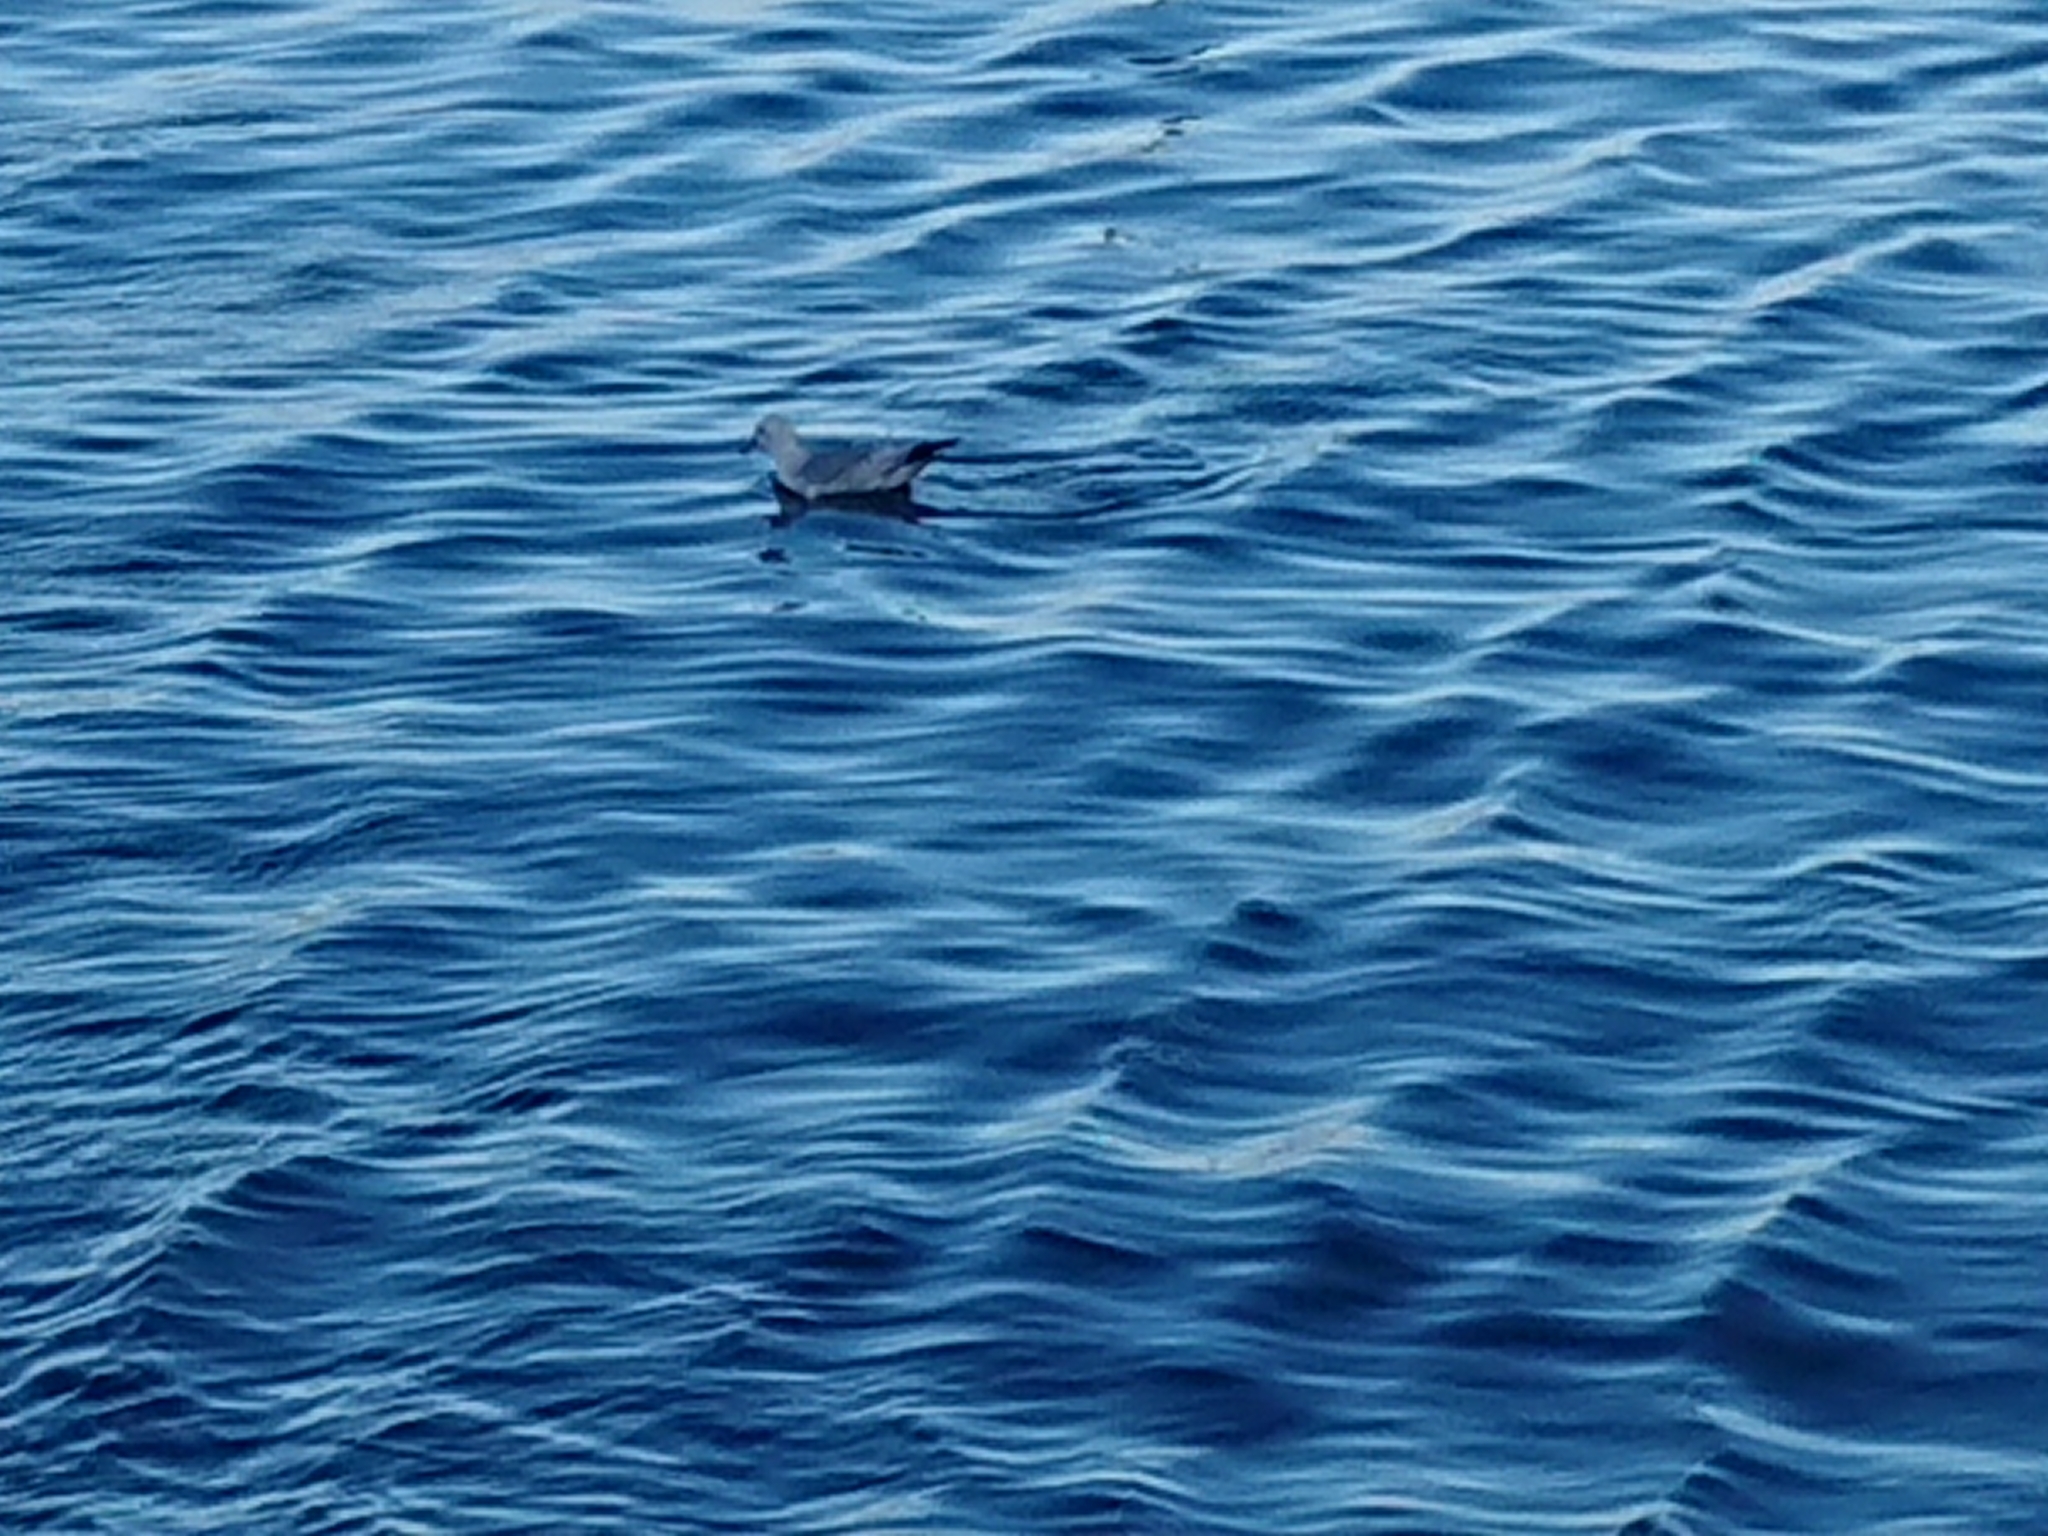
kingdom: Animalia
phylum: Chordata
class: Aves
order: Procellariiformes
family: Procellariidae
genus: Fulmarus
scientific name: Fulmarus glacialoides
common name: Southern fulmar
